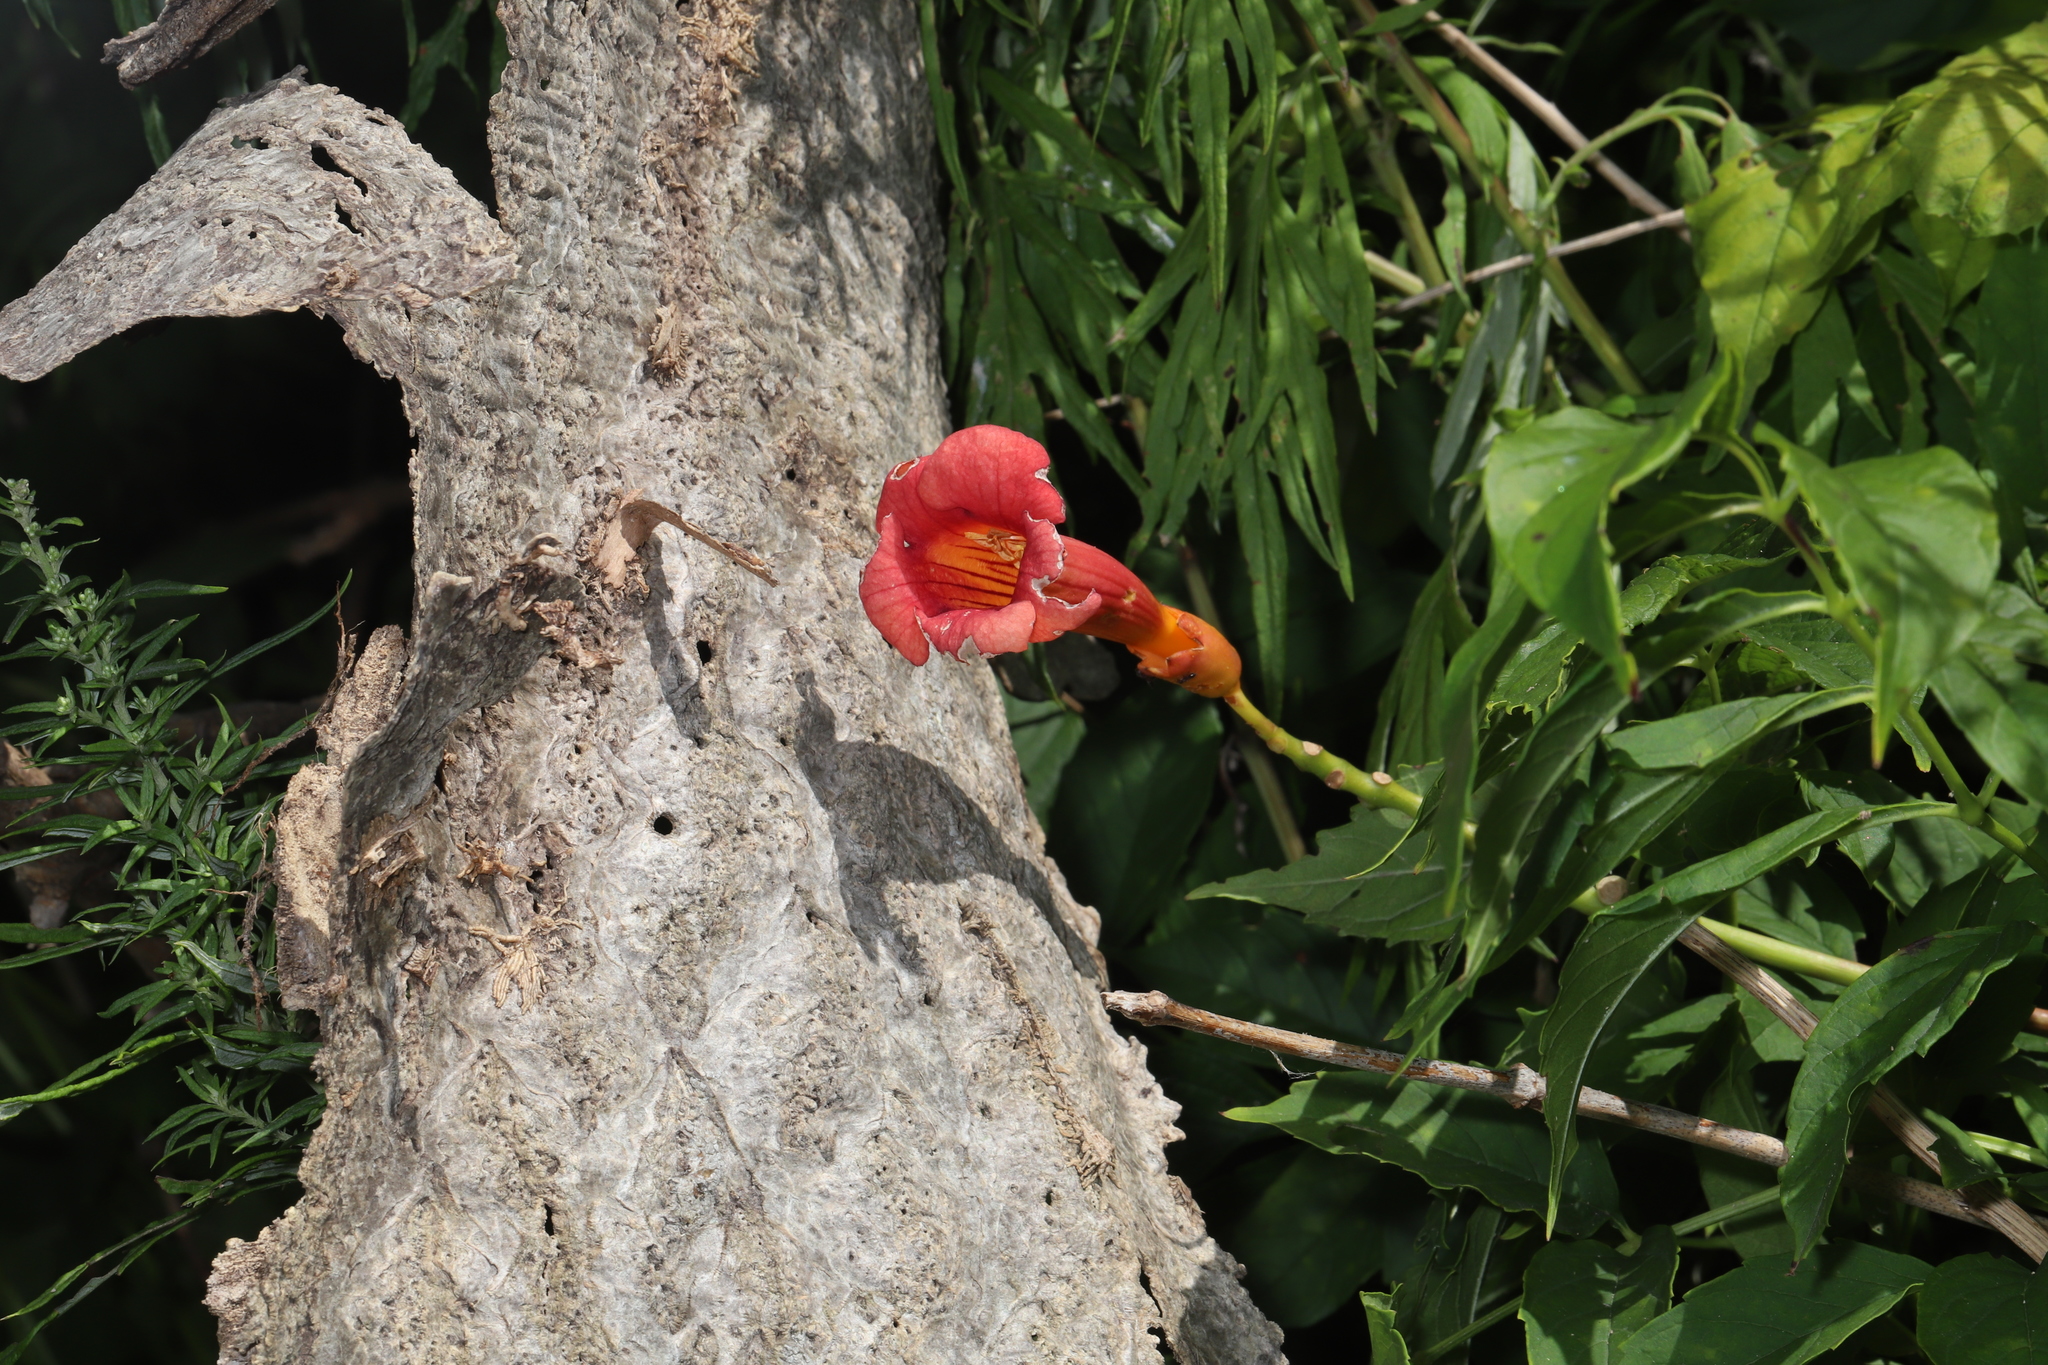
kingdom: Plantae
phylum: Tracheophyta
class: Magnoliopsida
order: Lamiales
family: Bignoniaceae
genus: Campsis
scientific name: Campsis radicans
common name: Trumpet-creeper
